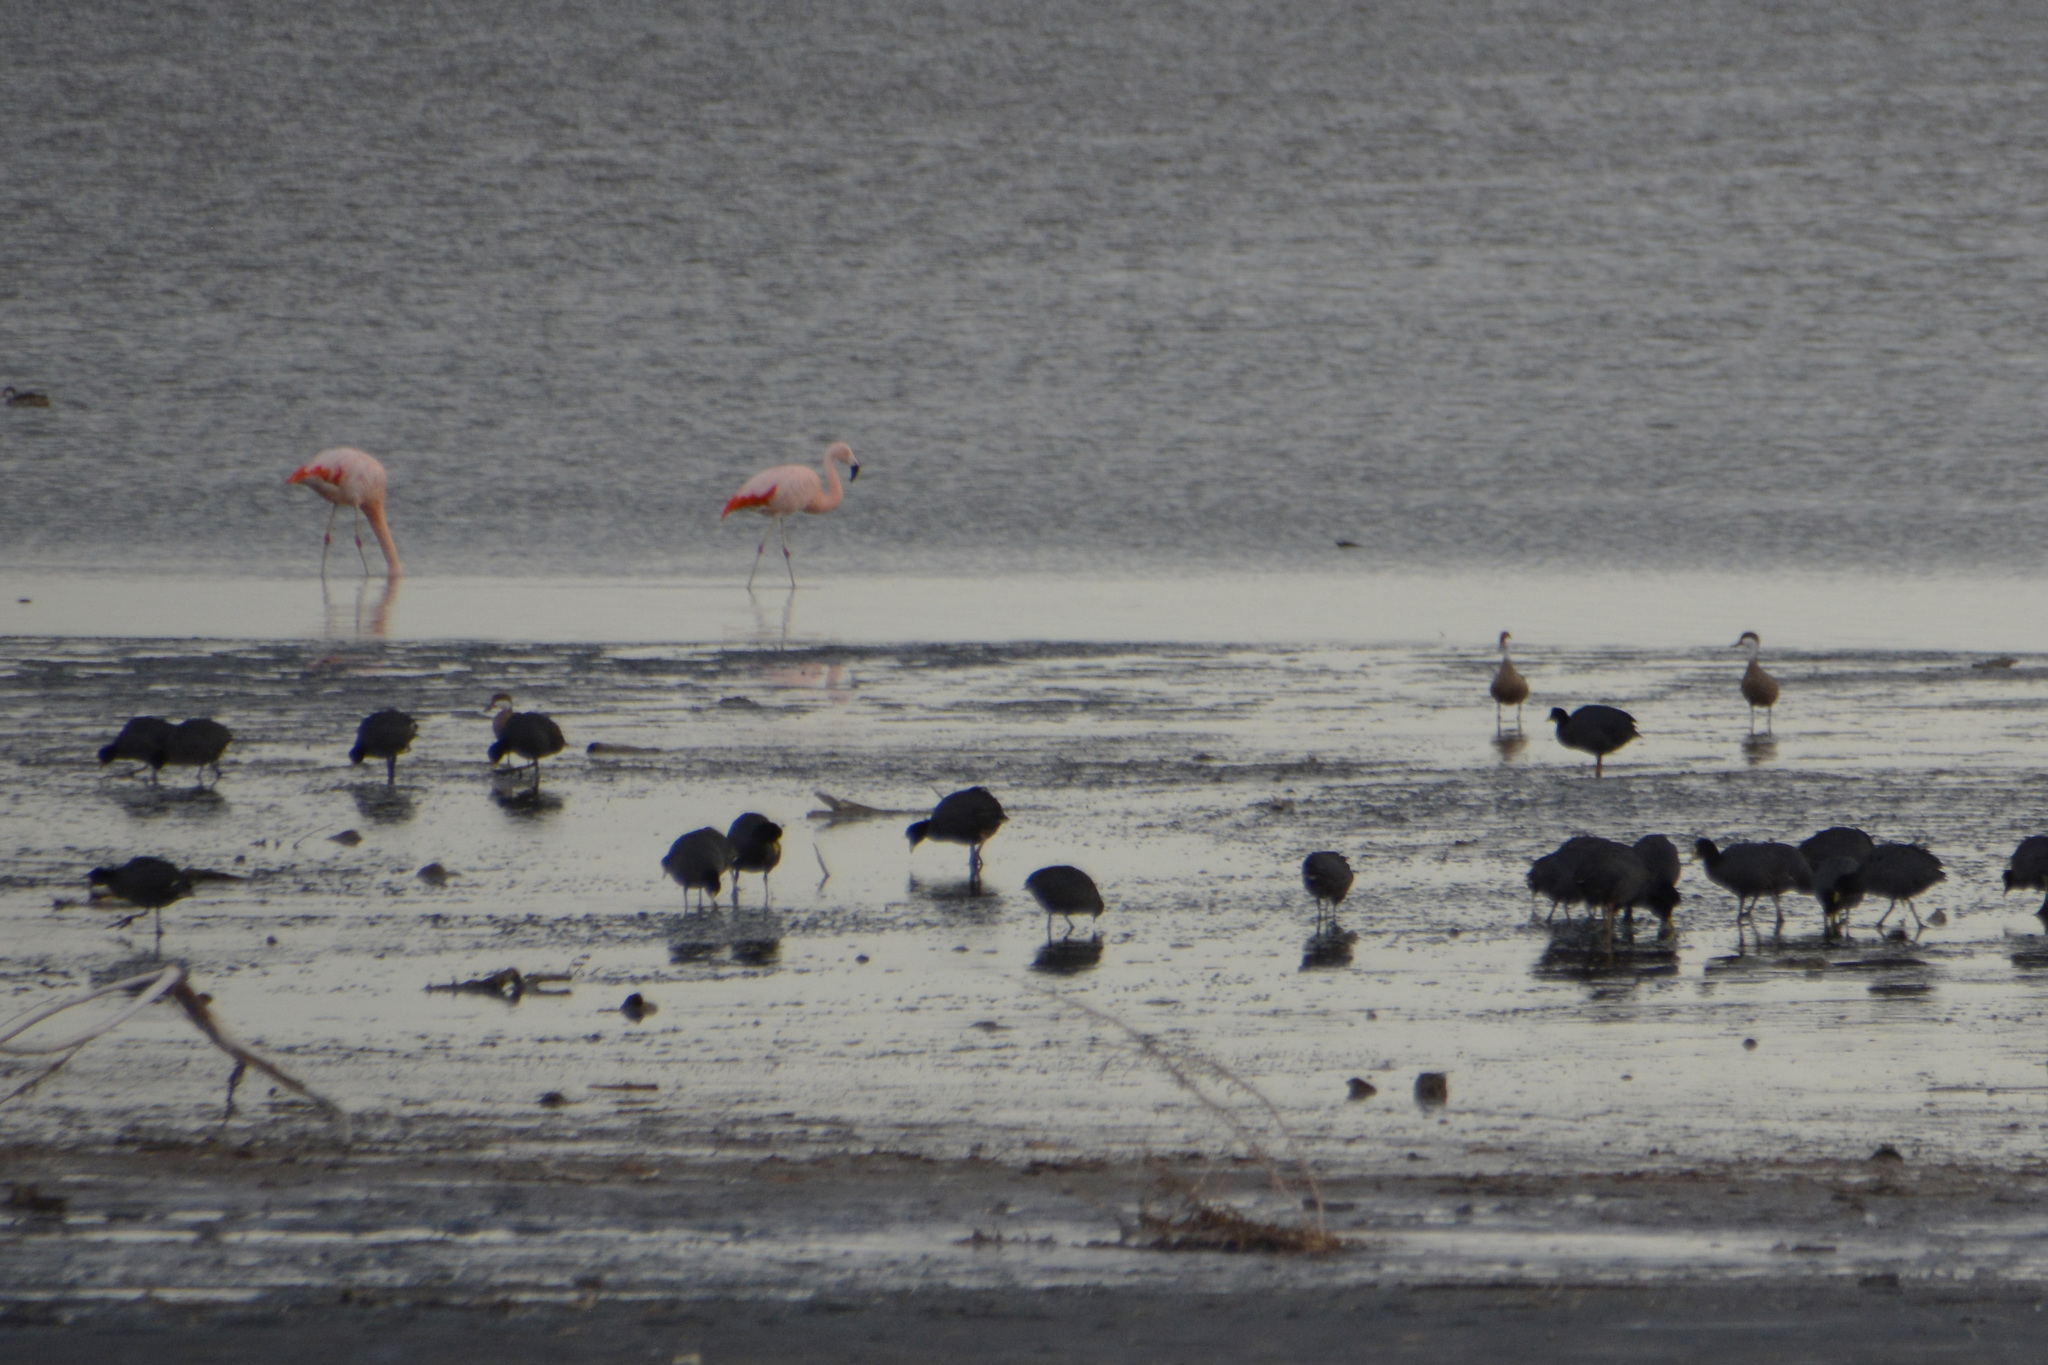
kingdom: Animalia
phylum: Chordata
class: Aves
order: Anseriformes
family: Anatidae
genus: Anas
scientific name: Anas bahamensis
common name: White-cheeked pintail
